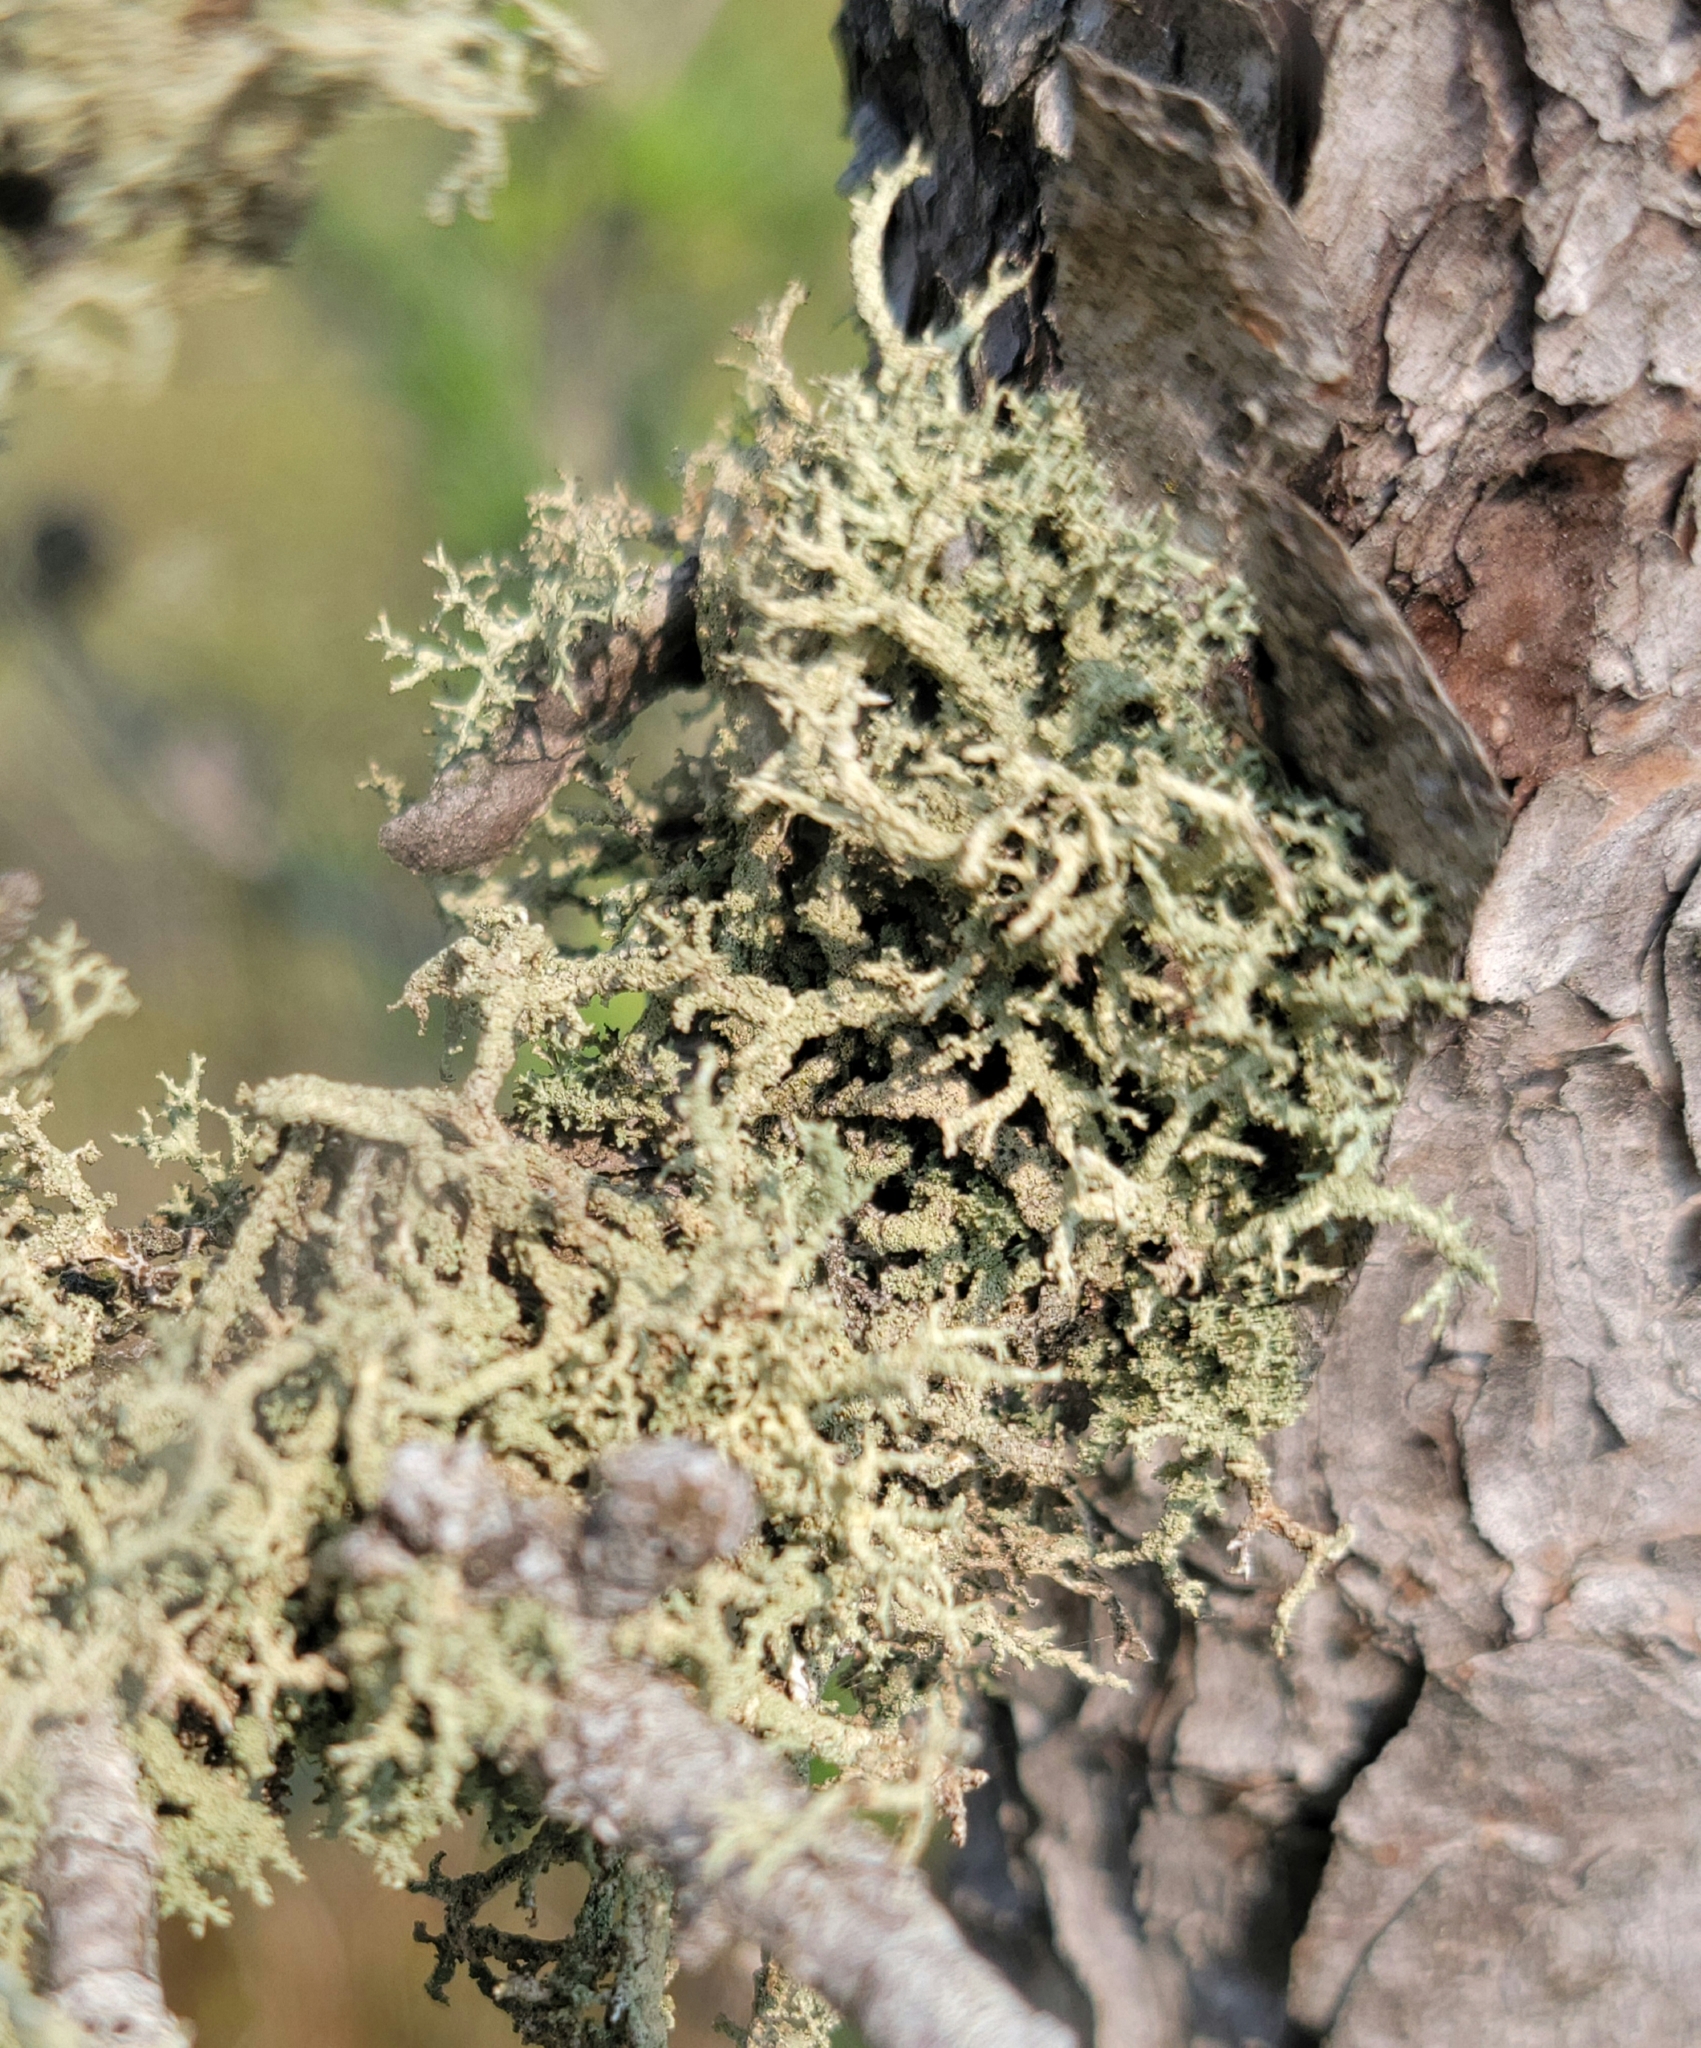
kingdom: Fungi
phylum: Ascomycota
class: Lecanoromycetes
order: Lecanorales
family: Parmeliaceae
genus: Evernia
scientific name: Evernia mesomorpha
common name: Boreal oak moss lichen
